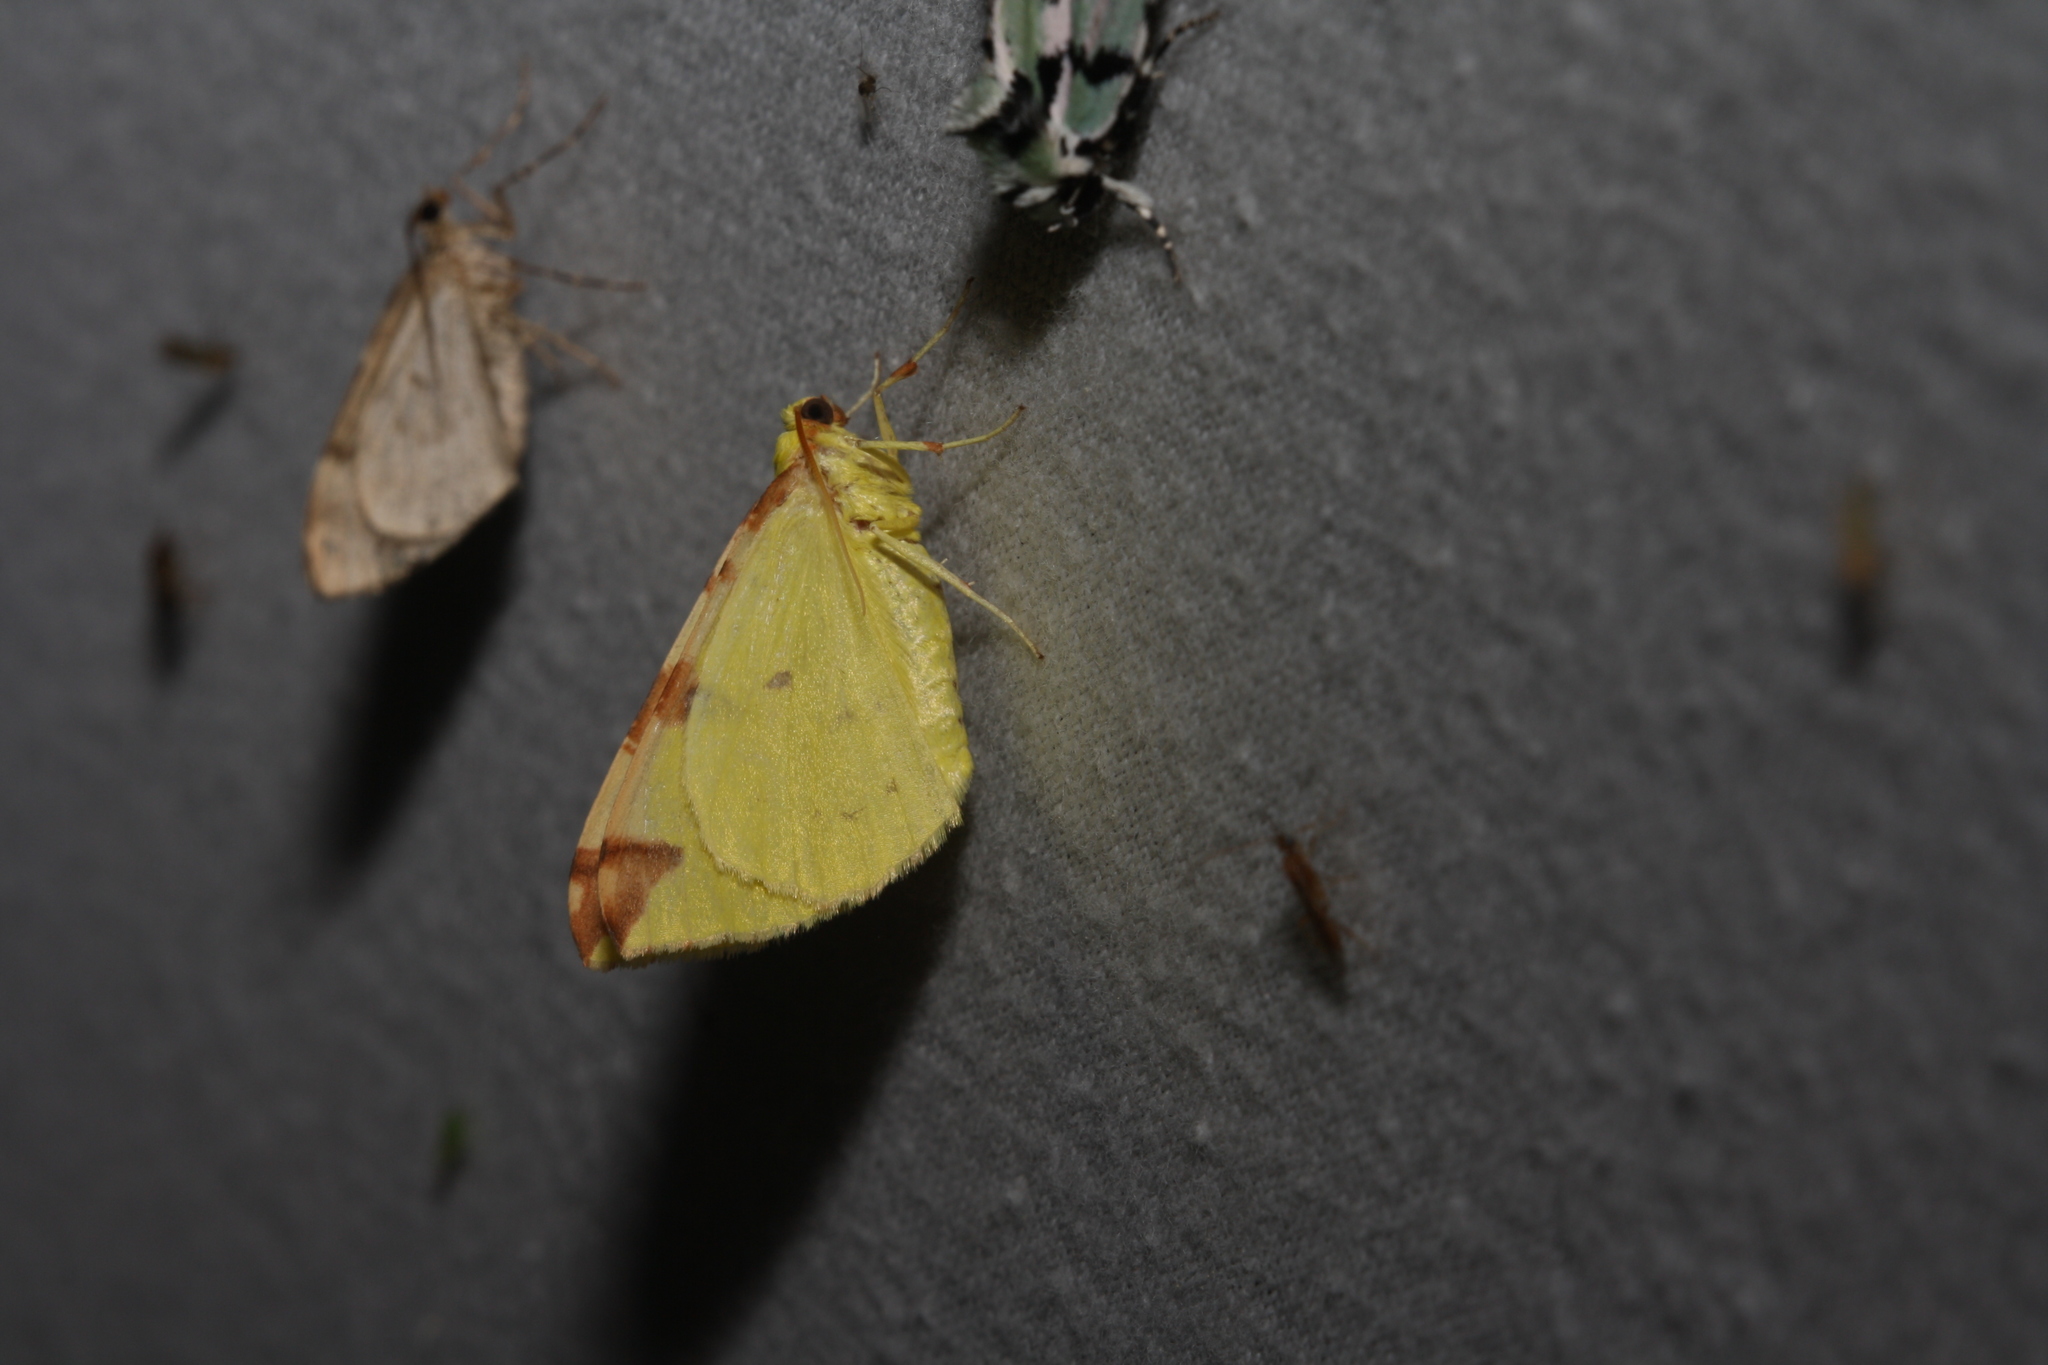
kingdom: Animalia
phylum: Arthropoda
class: Insecta
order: Lepidoptera
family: Geometridae
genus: Opisthograptis
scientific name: Opisthograptis luteolata
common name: Brimstone moth
